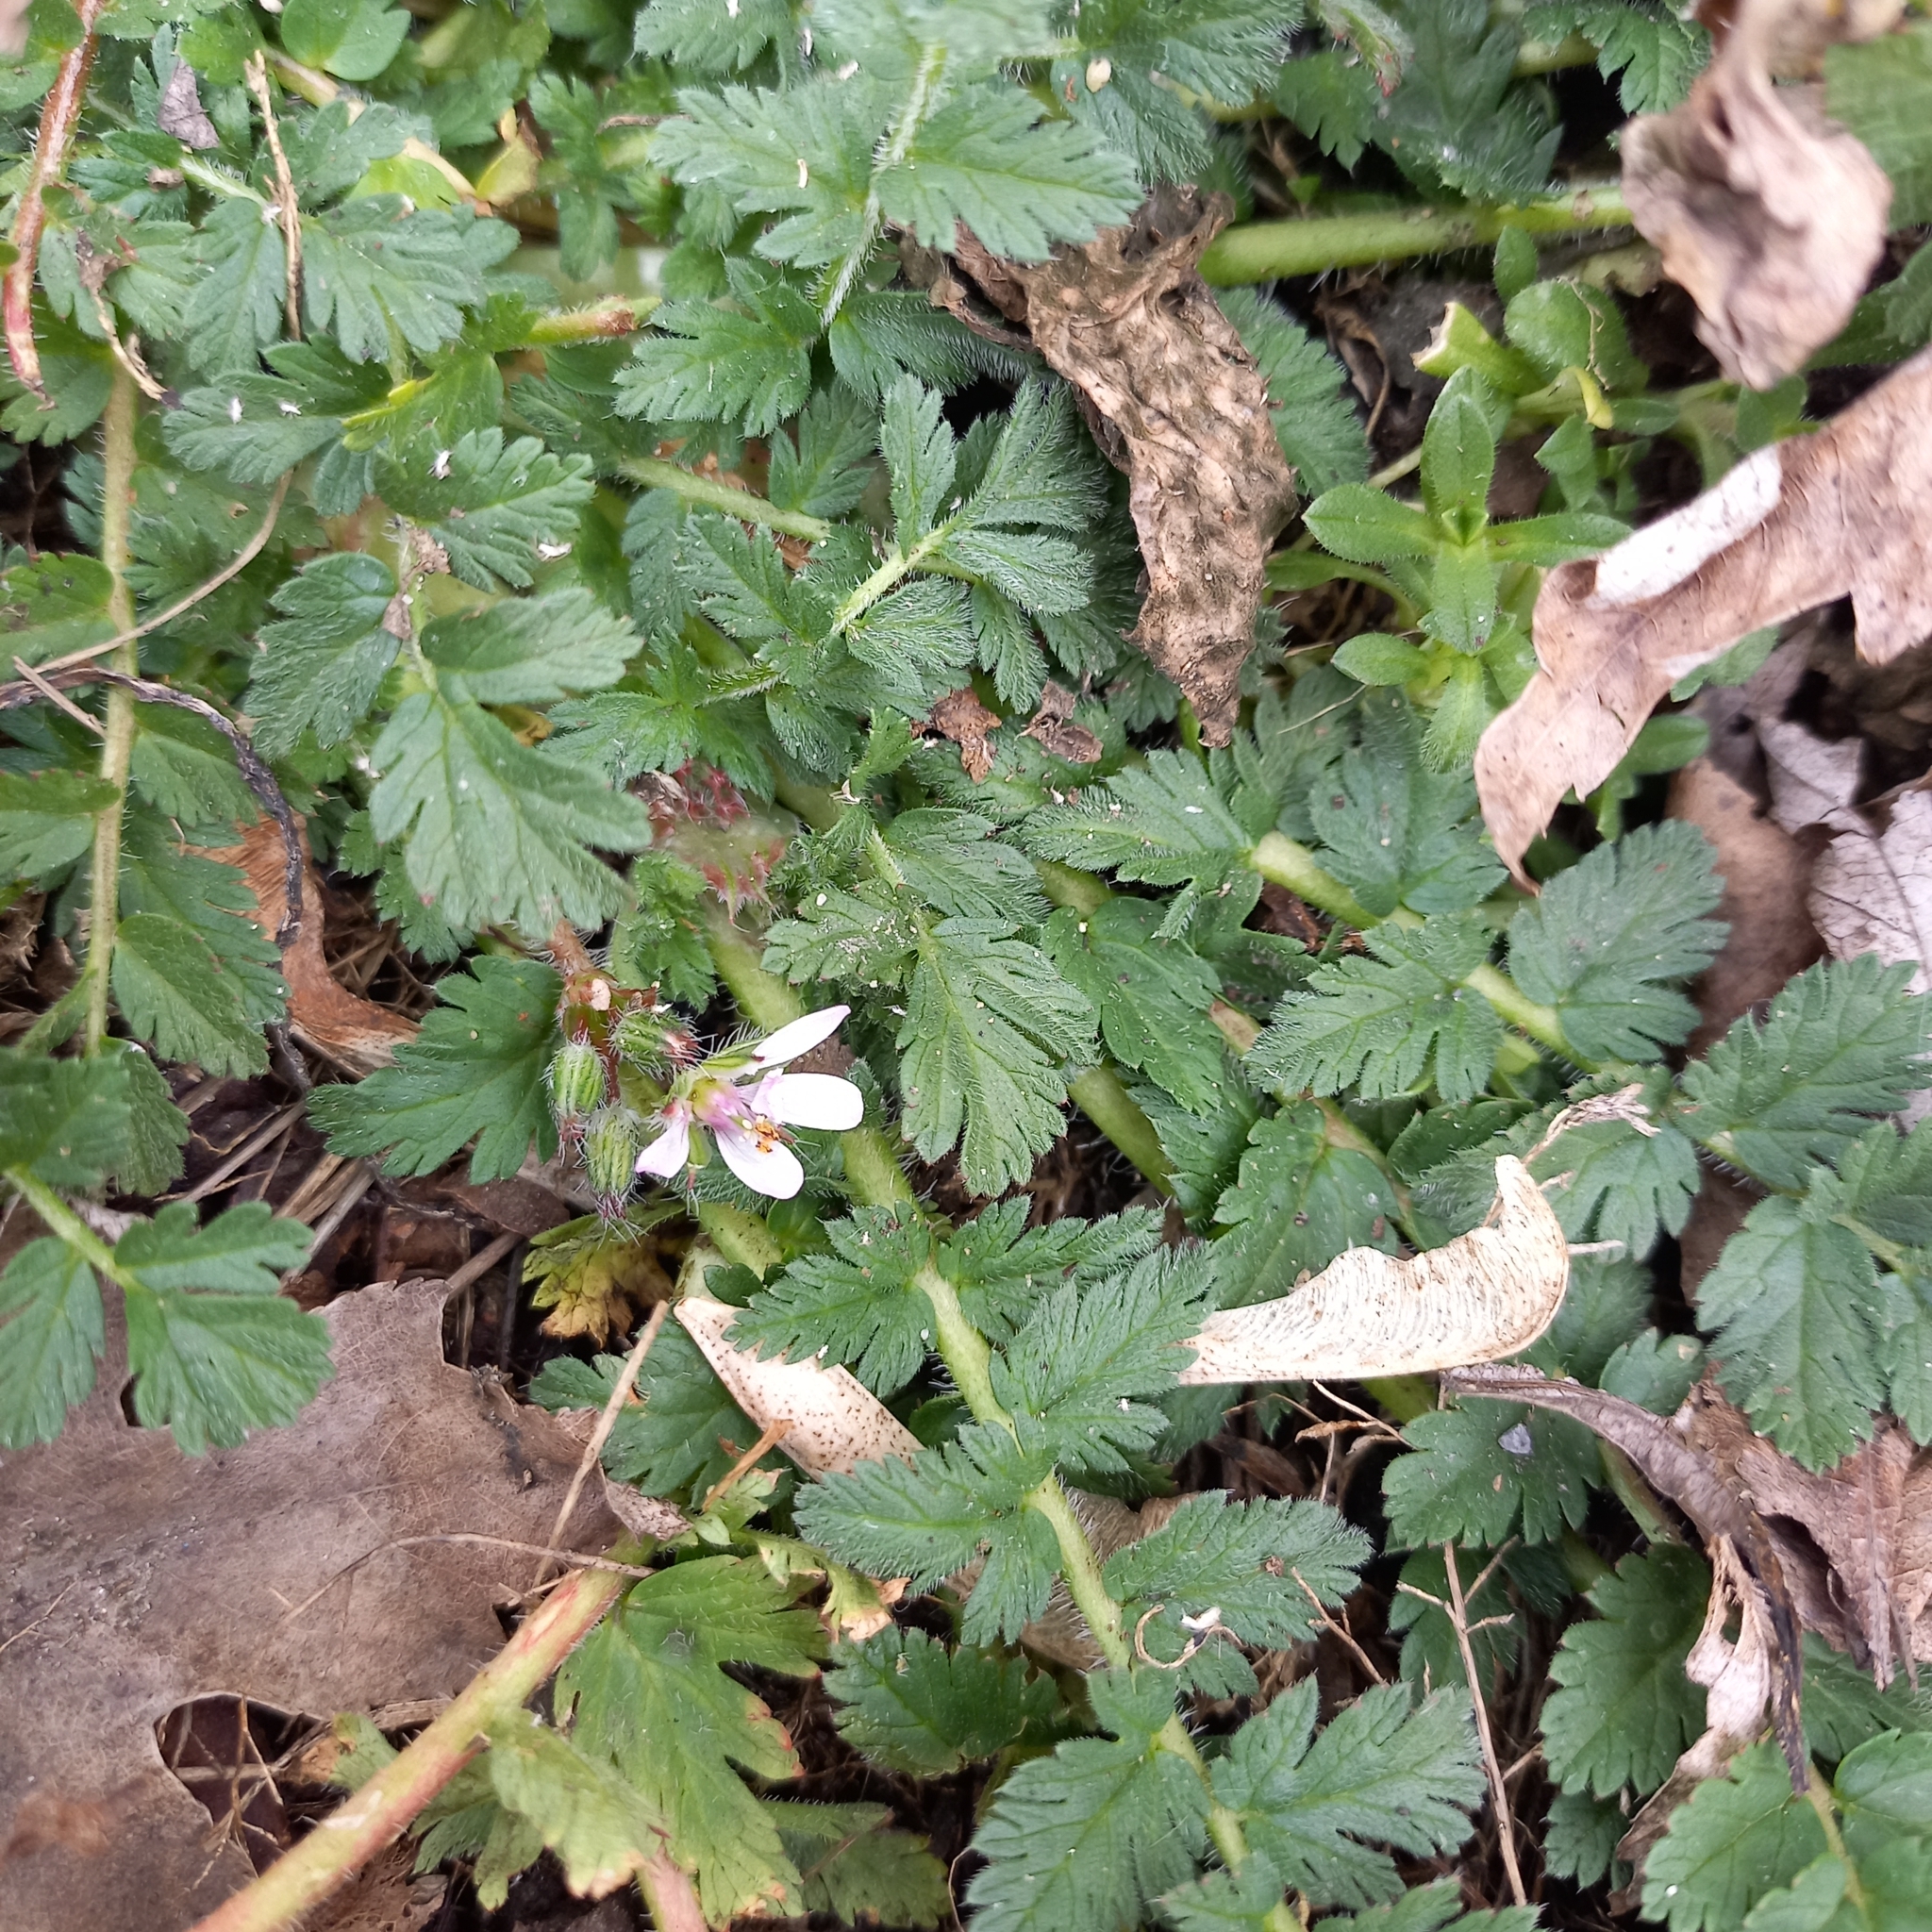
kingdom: Plantae
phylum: Tracheophyta
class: Magnoliopsida
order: Geraniales
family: Geraniaceae
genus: Erodium
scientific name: Erodium cicutarium
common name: Common stork's-bill
